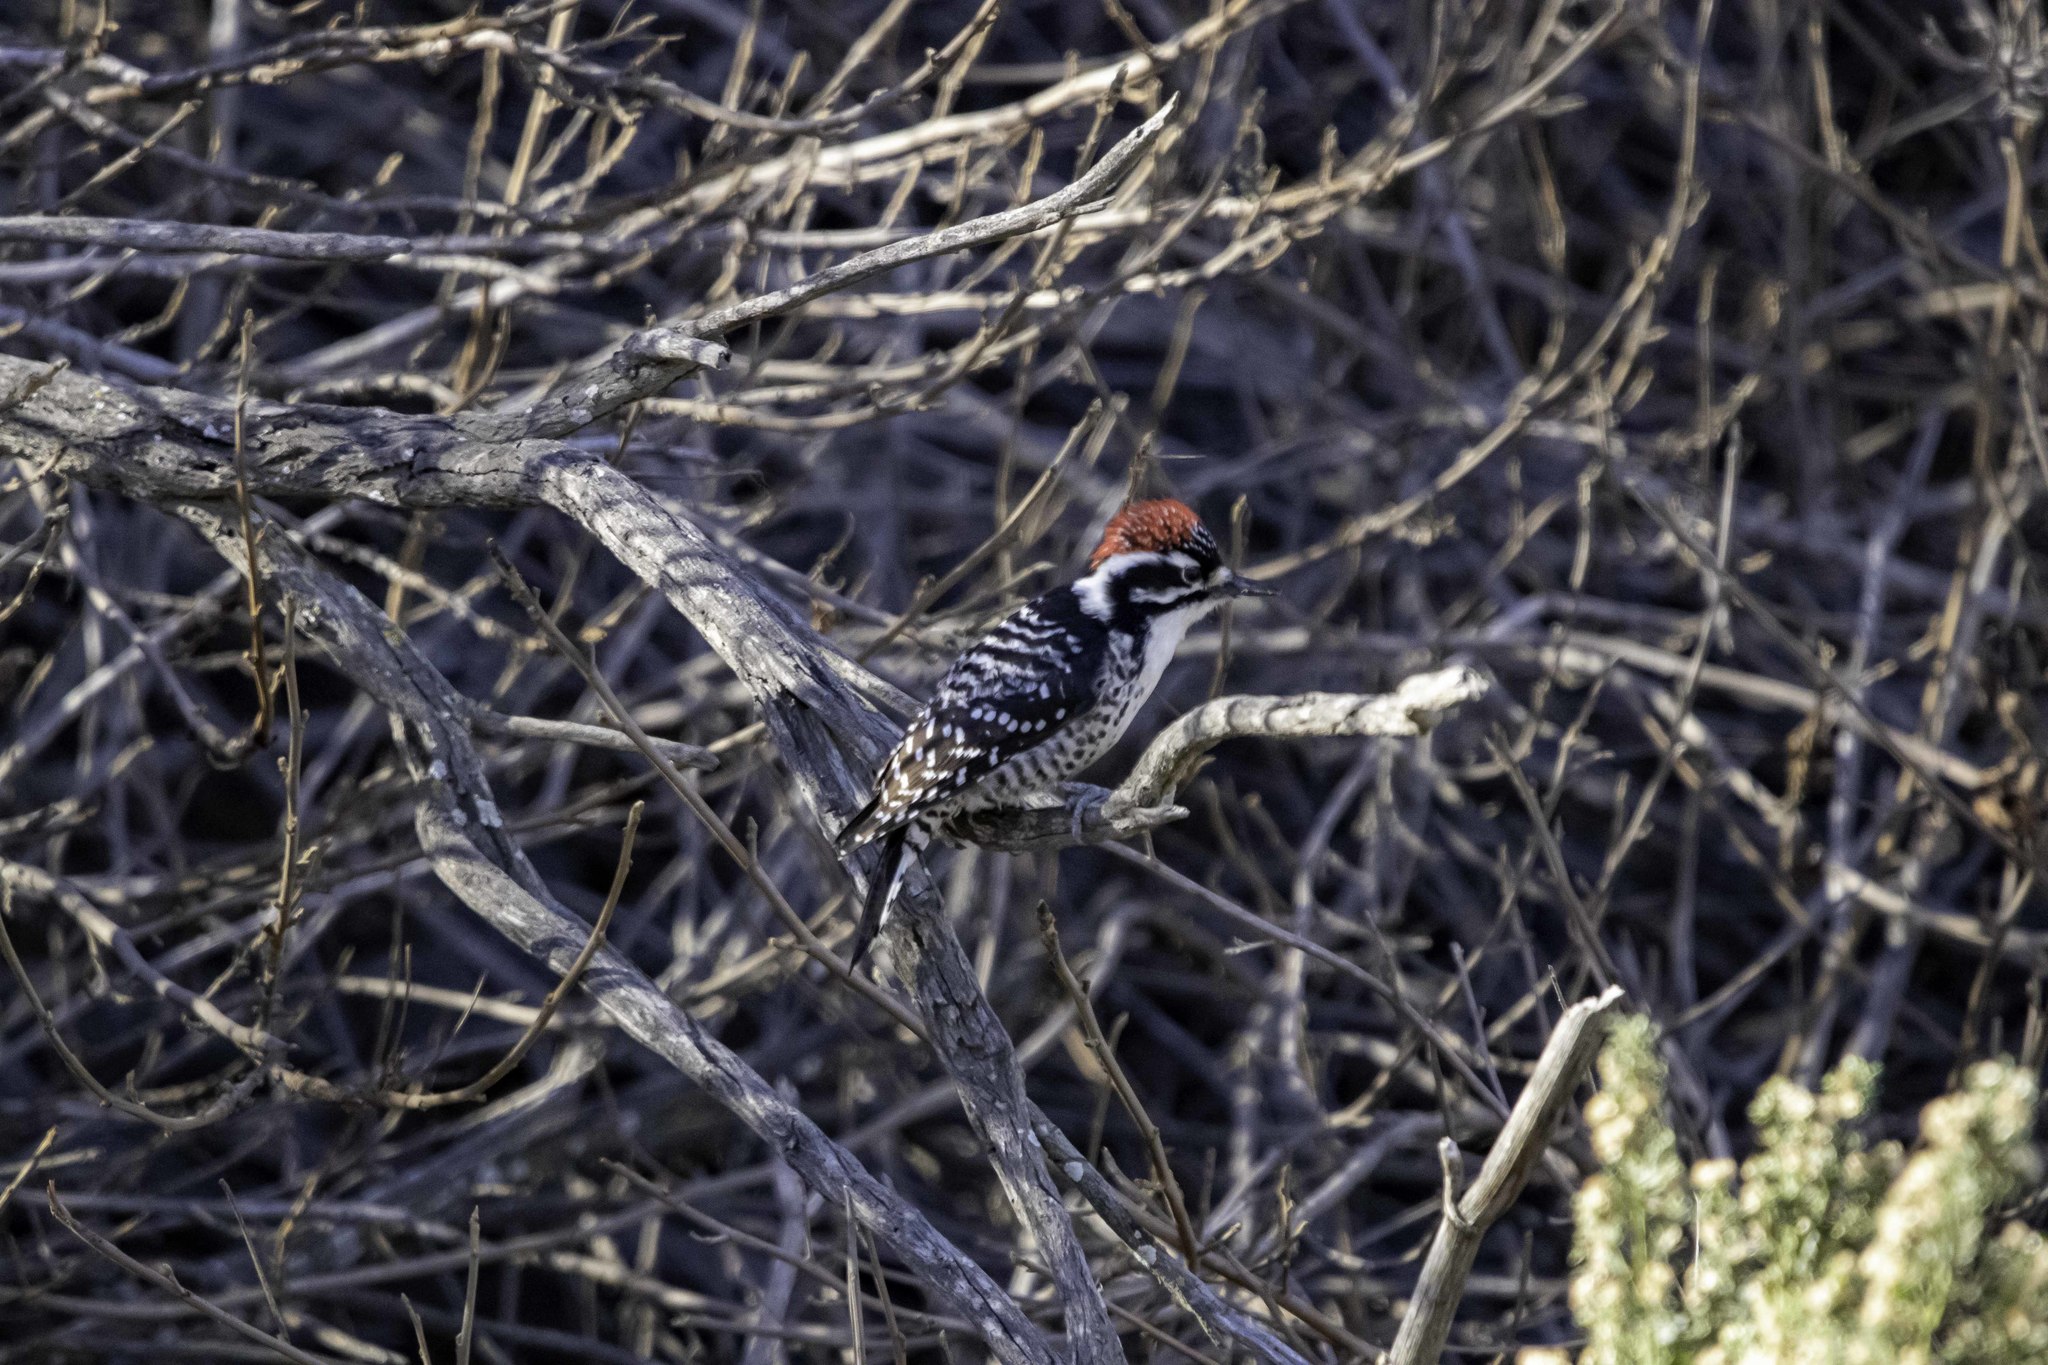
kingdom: Animalia
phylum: Chordata
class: Aves
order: Piciformes
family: Picidae
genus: Dryobates
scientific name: Dryobates nuttallii
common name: Nuttall's woodpecker
